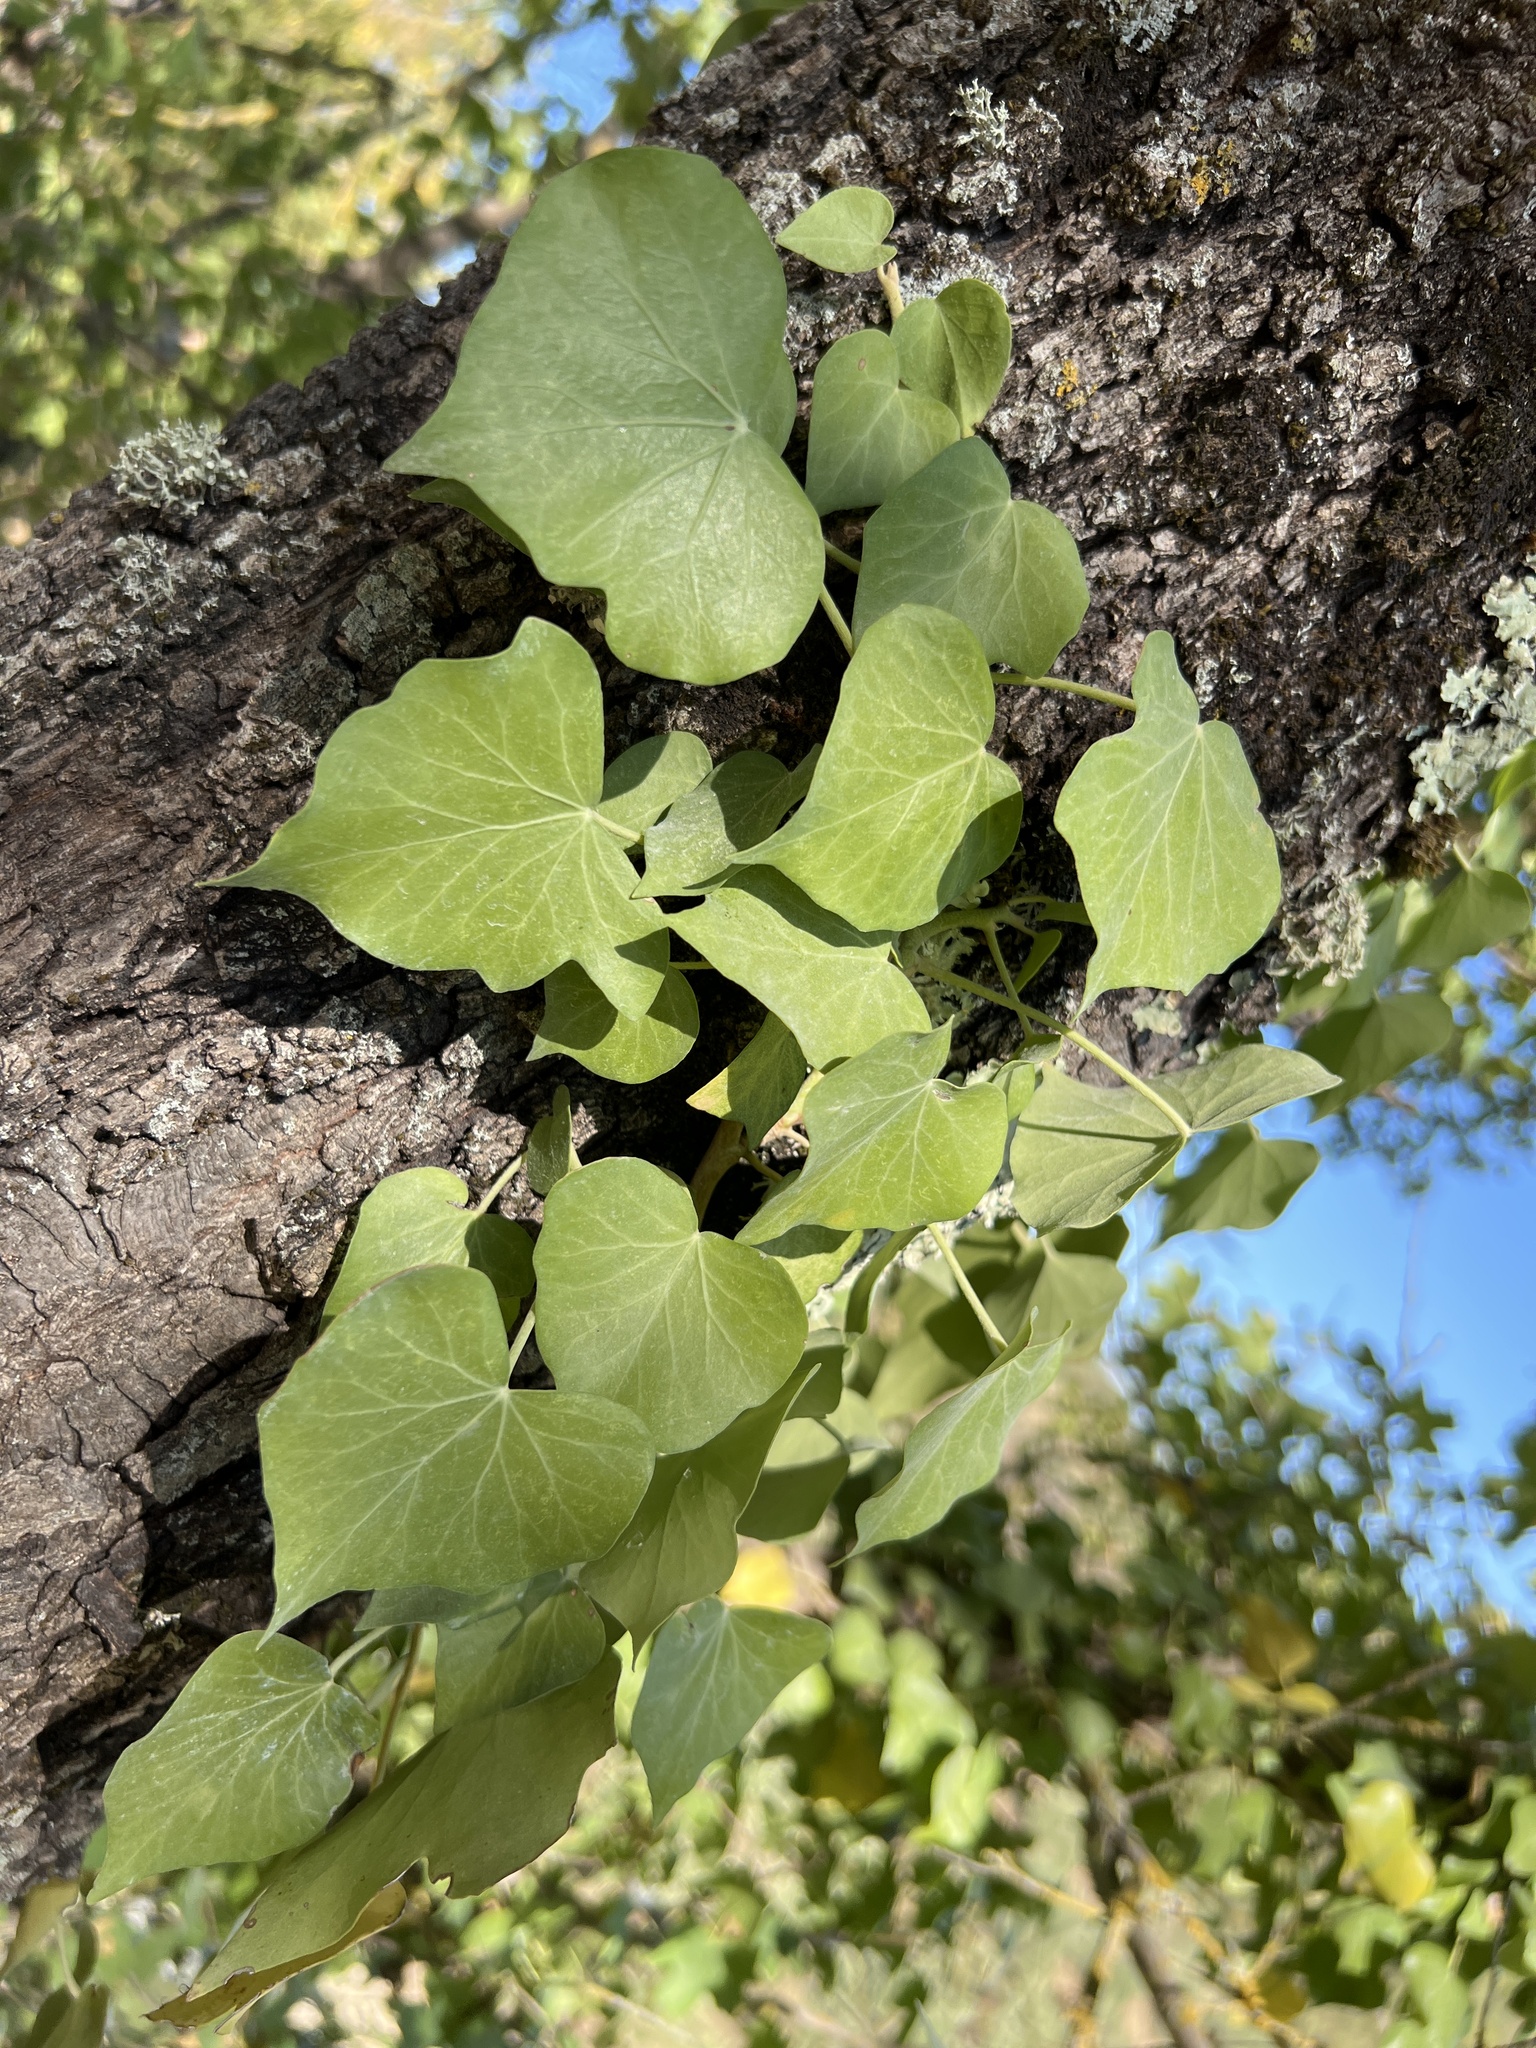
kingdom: Plantae
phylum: Tracheophyta
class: Magnoliopsida
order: Apiales
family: Araliaceae
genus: Hedera
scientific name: Hedera helix
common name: Ivy
